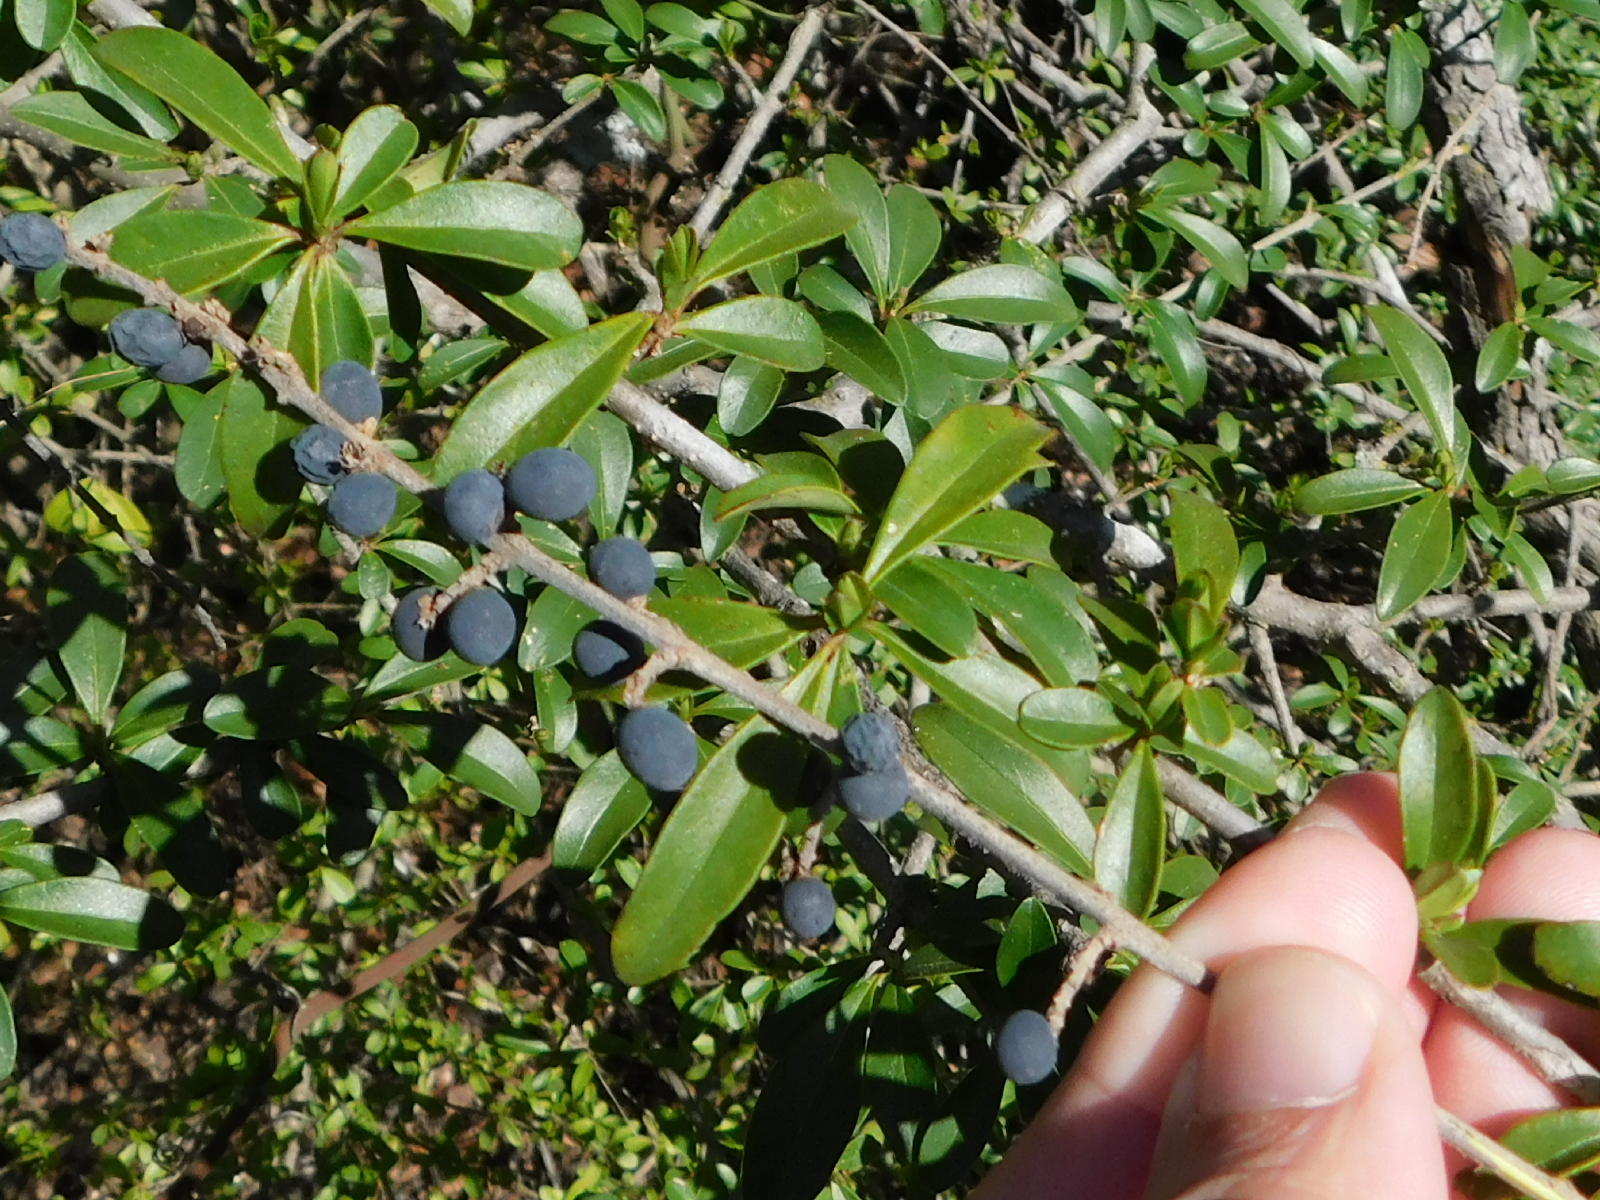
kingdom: Plantae
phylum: Tracheophyta
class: Magnoliopsida
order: Lamiales
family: Oleaceae
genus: Ligustrum
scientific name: Ligustrum quihoui
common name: Waxyleaf privet
